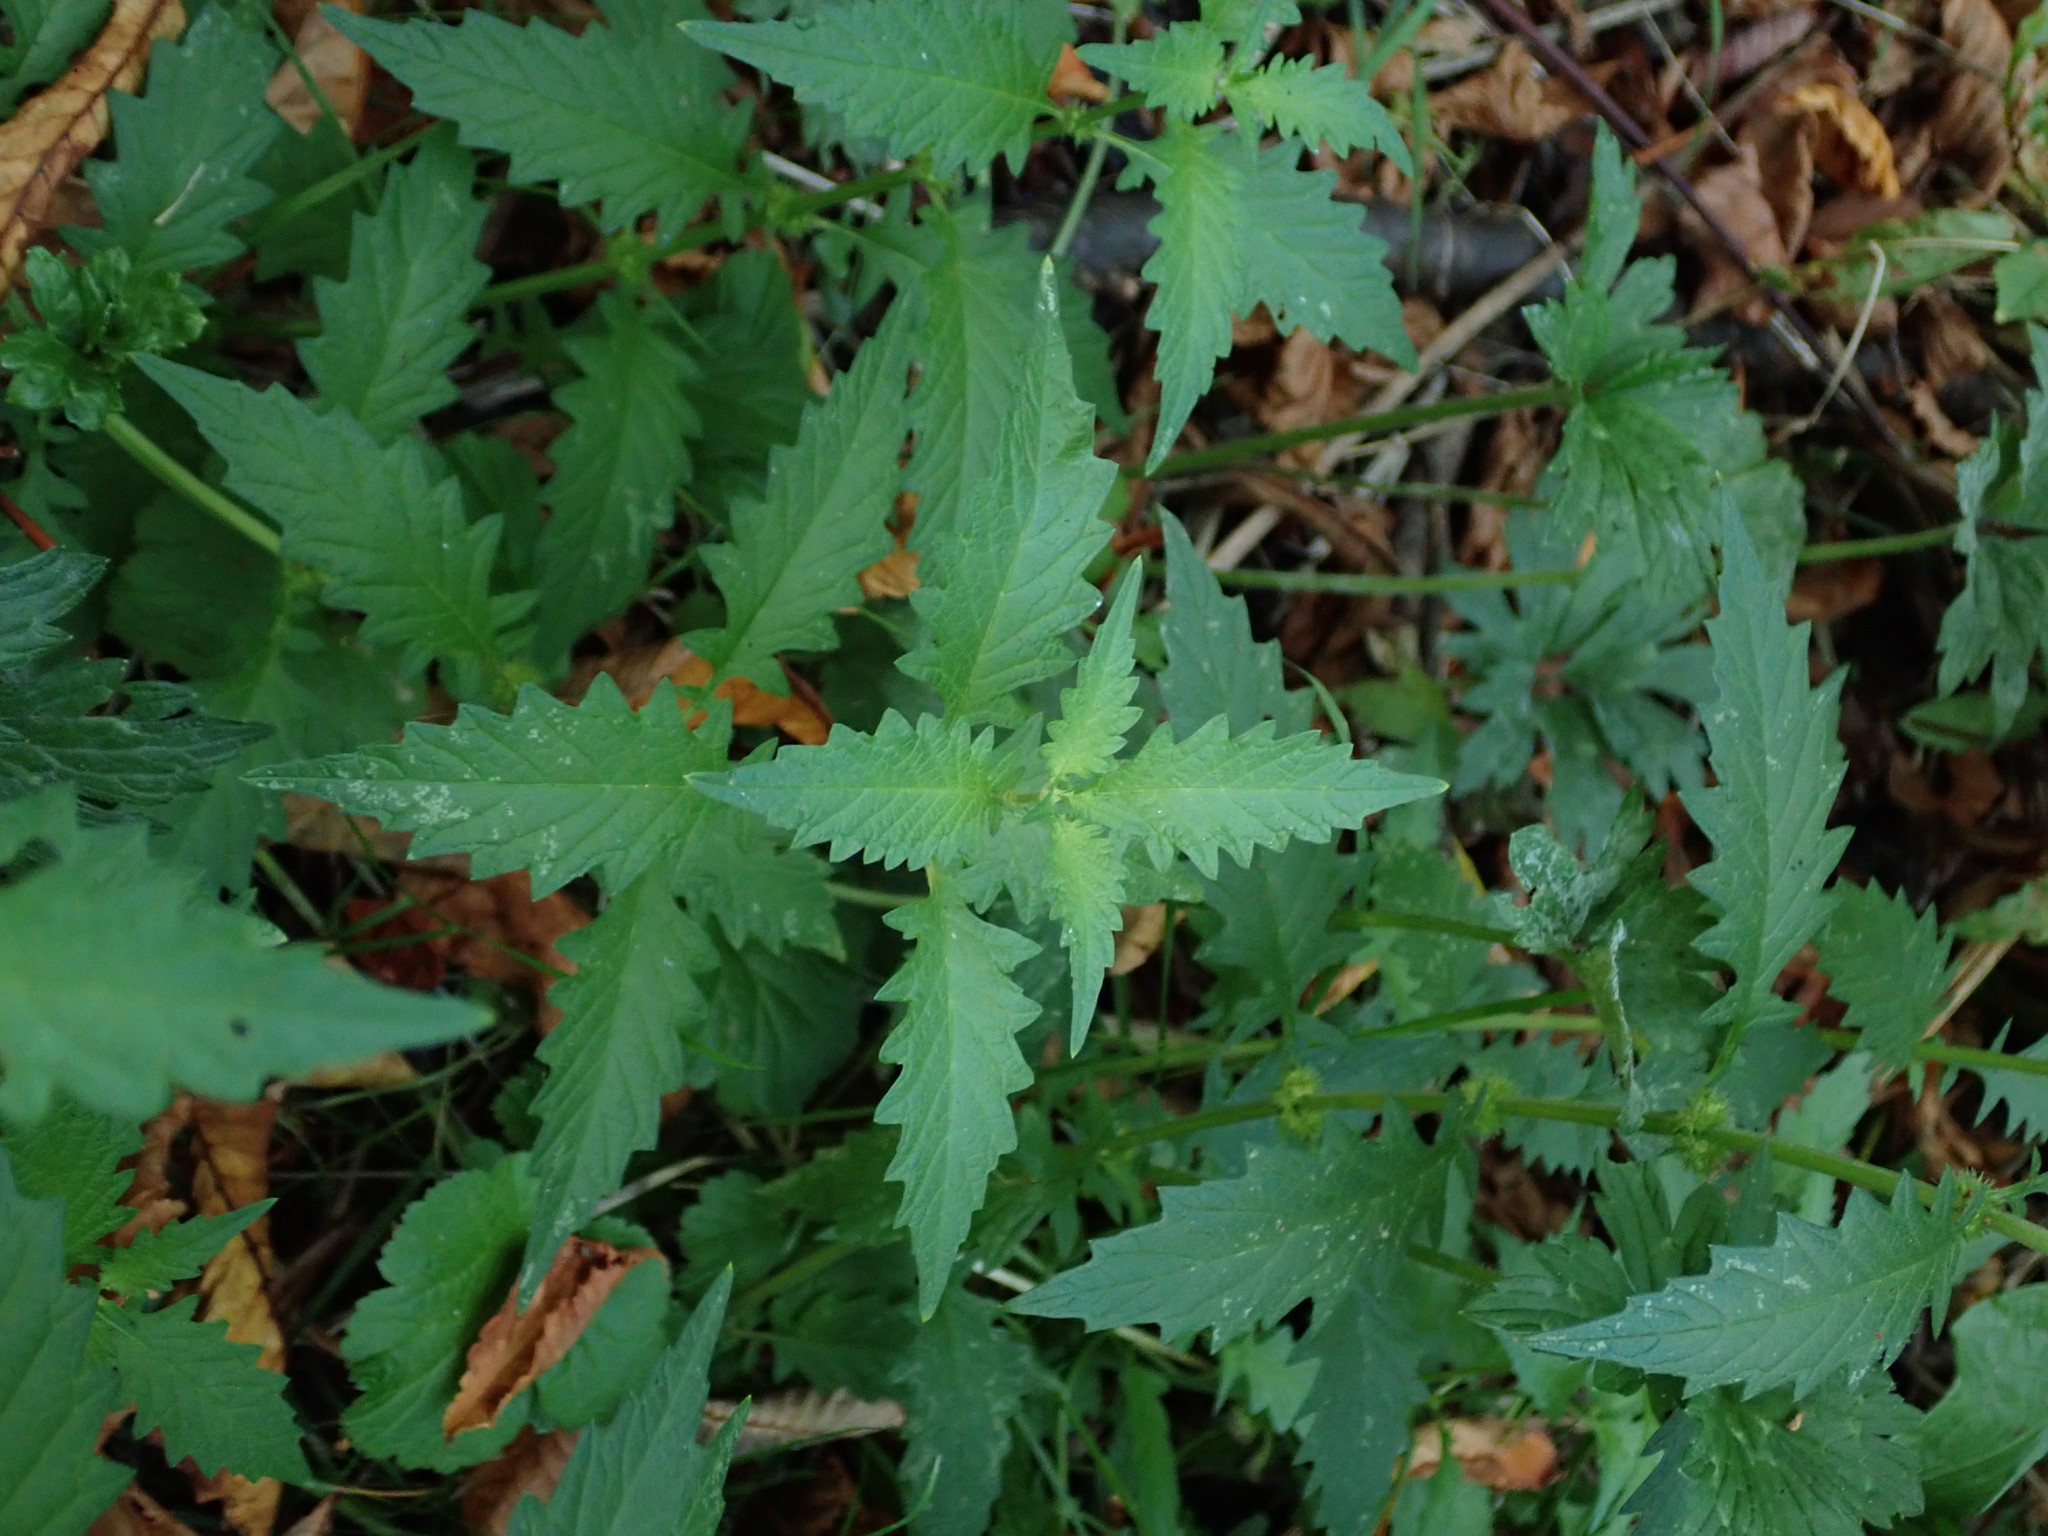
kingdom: Plantae
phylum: Tracheophyta
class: Magnoliopsida
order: Lamiales
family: Lamiaceae
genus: Lycopus
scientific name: Lycopus europaeus
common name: European bugleweed
